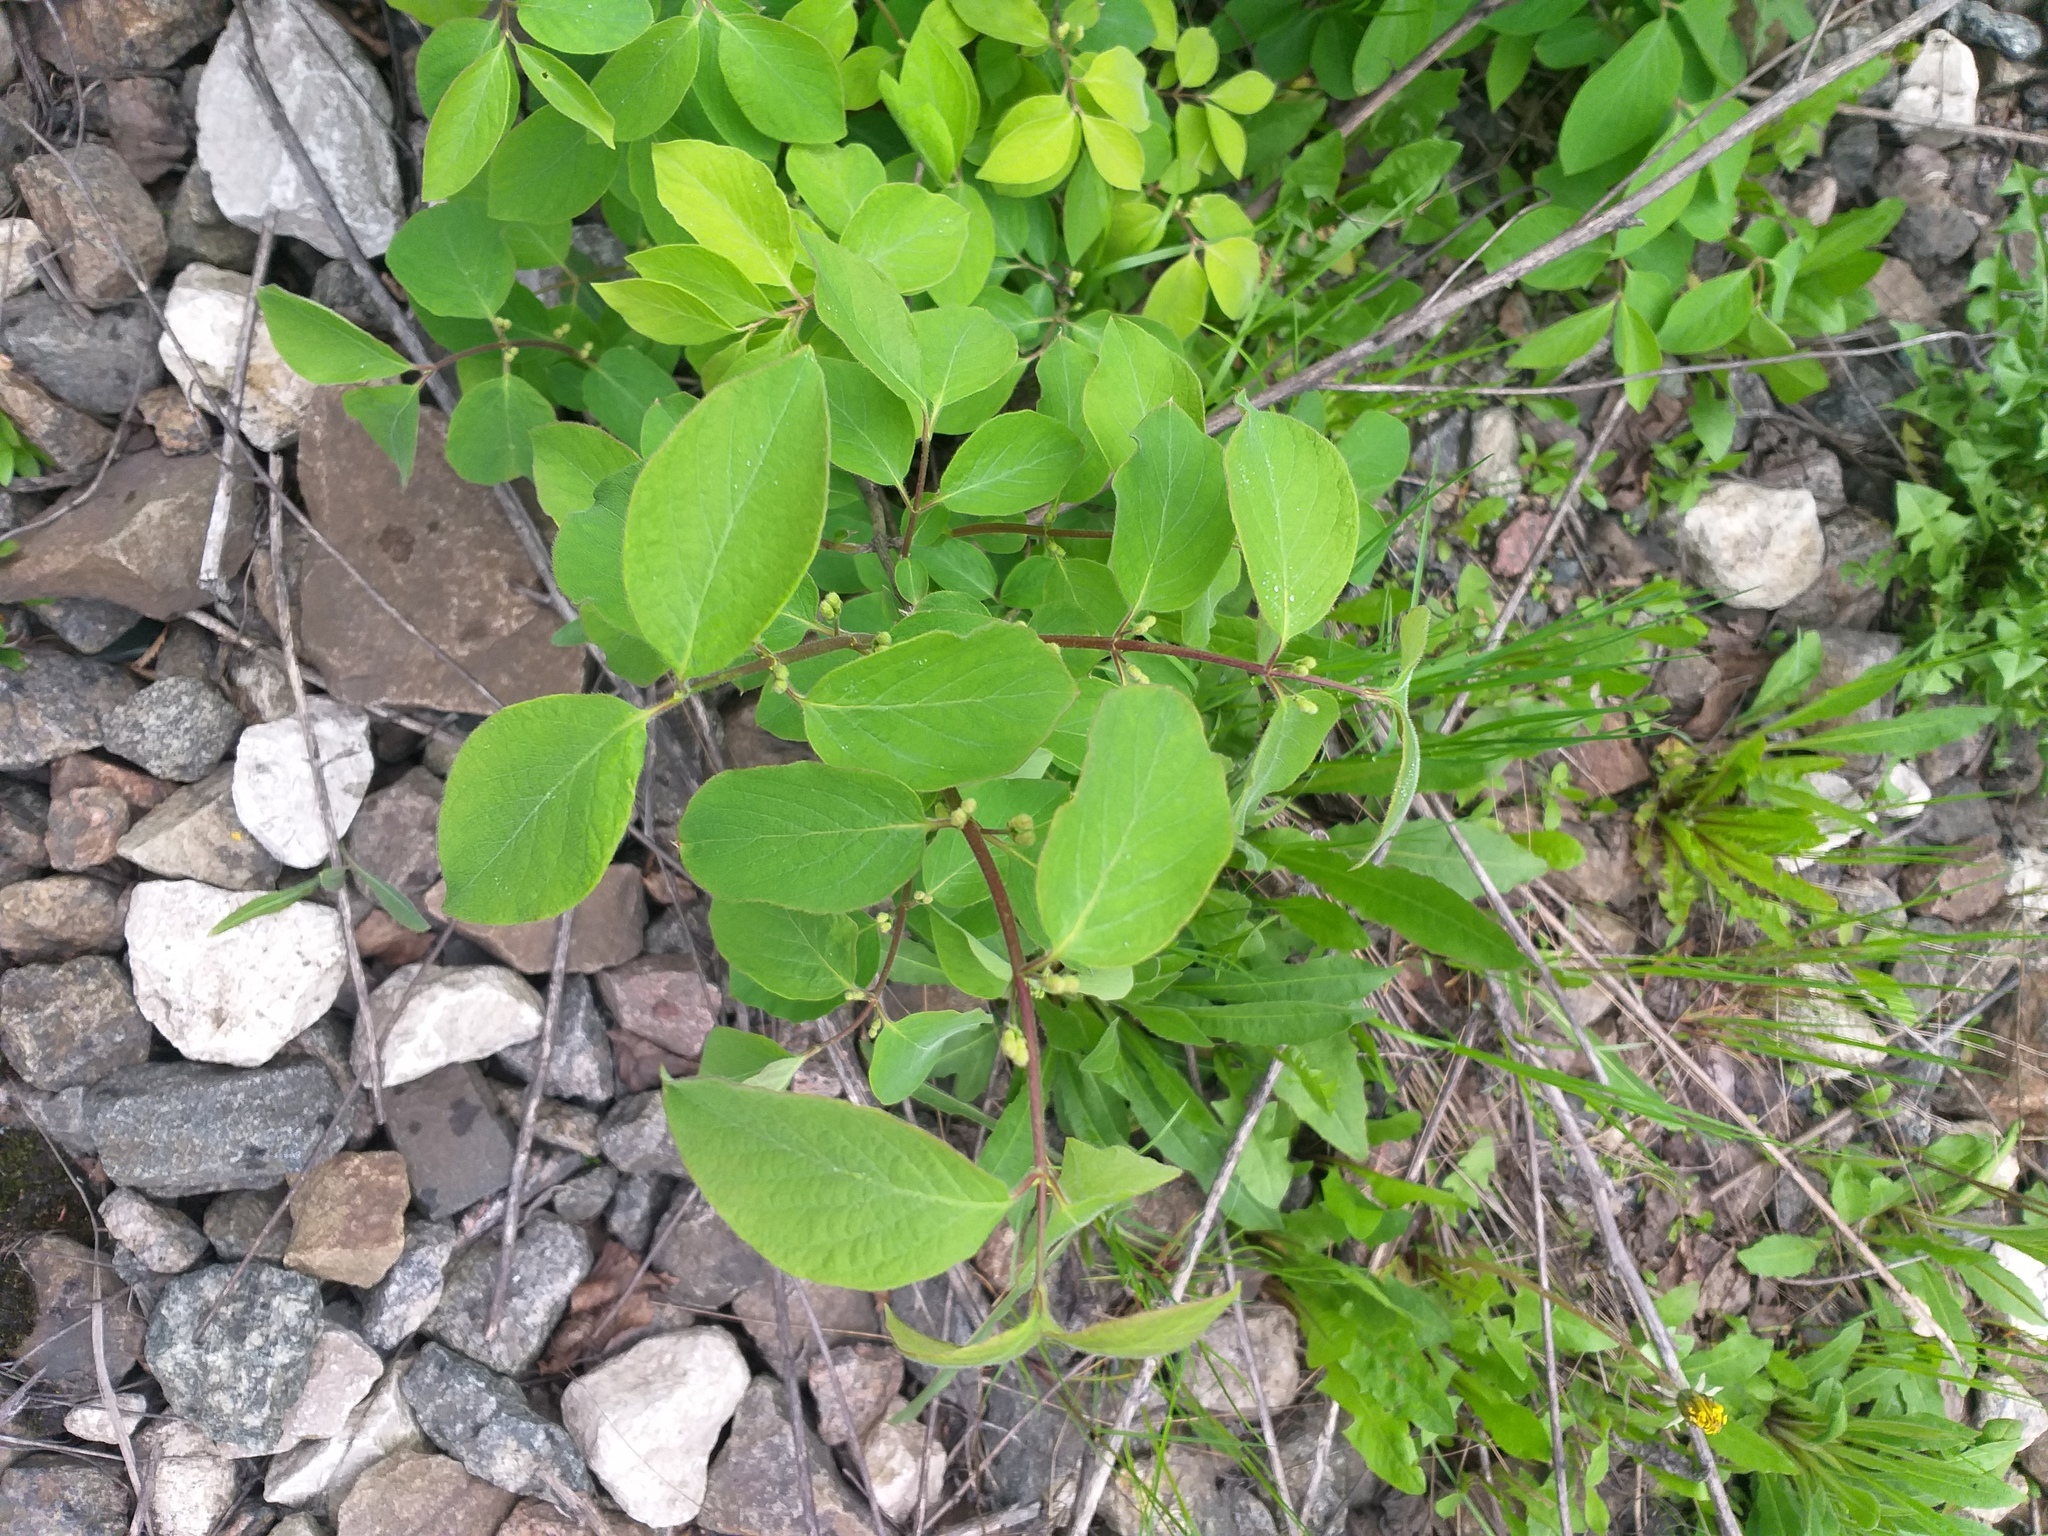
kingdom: Plantae
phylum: Tracheophyta
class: Magnoliopsida
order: Dipsacales
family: Caprifoliaceae
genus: Lonicera
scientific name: Lonicera xylosteum
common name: Fly honeysuckle
